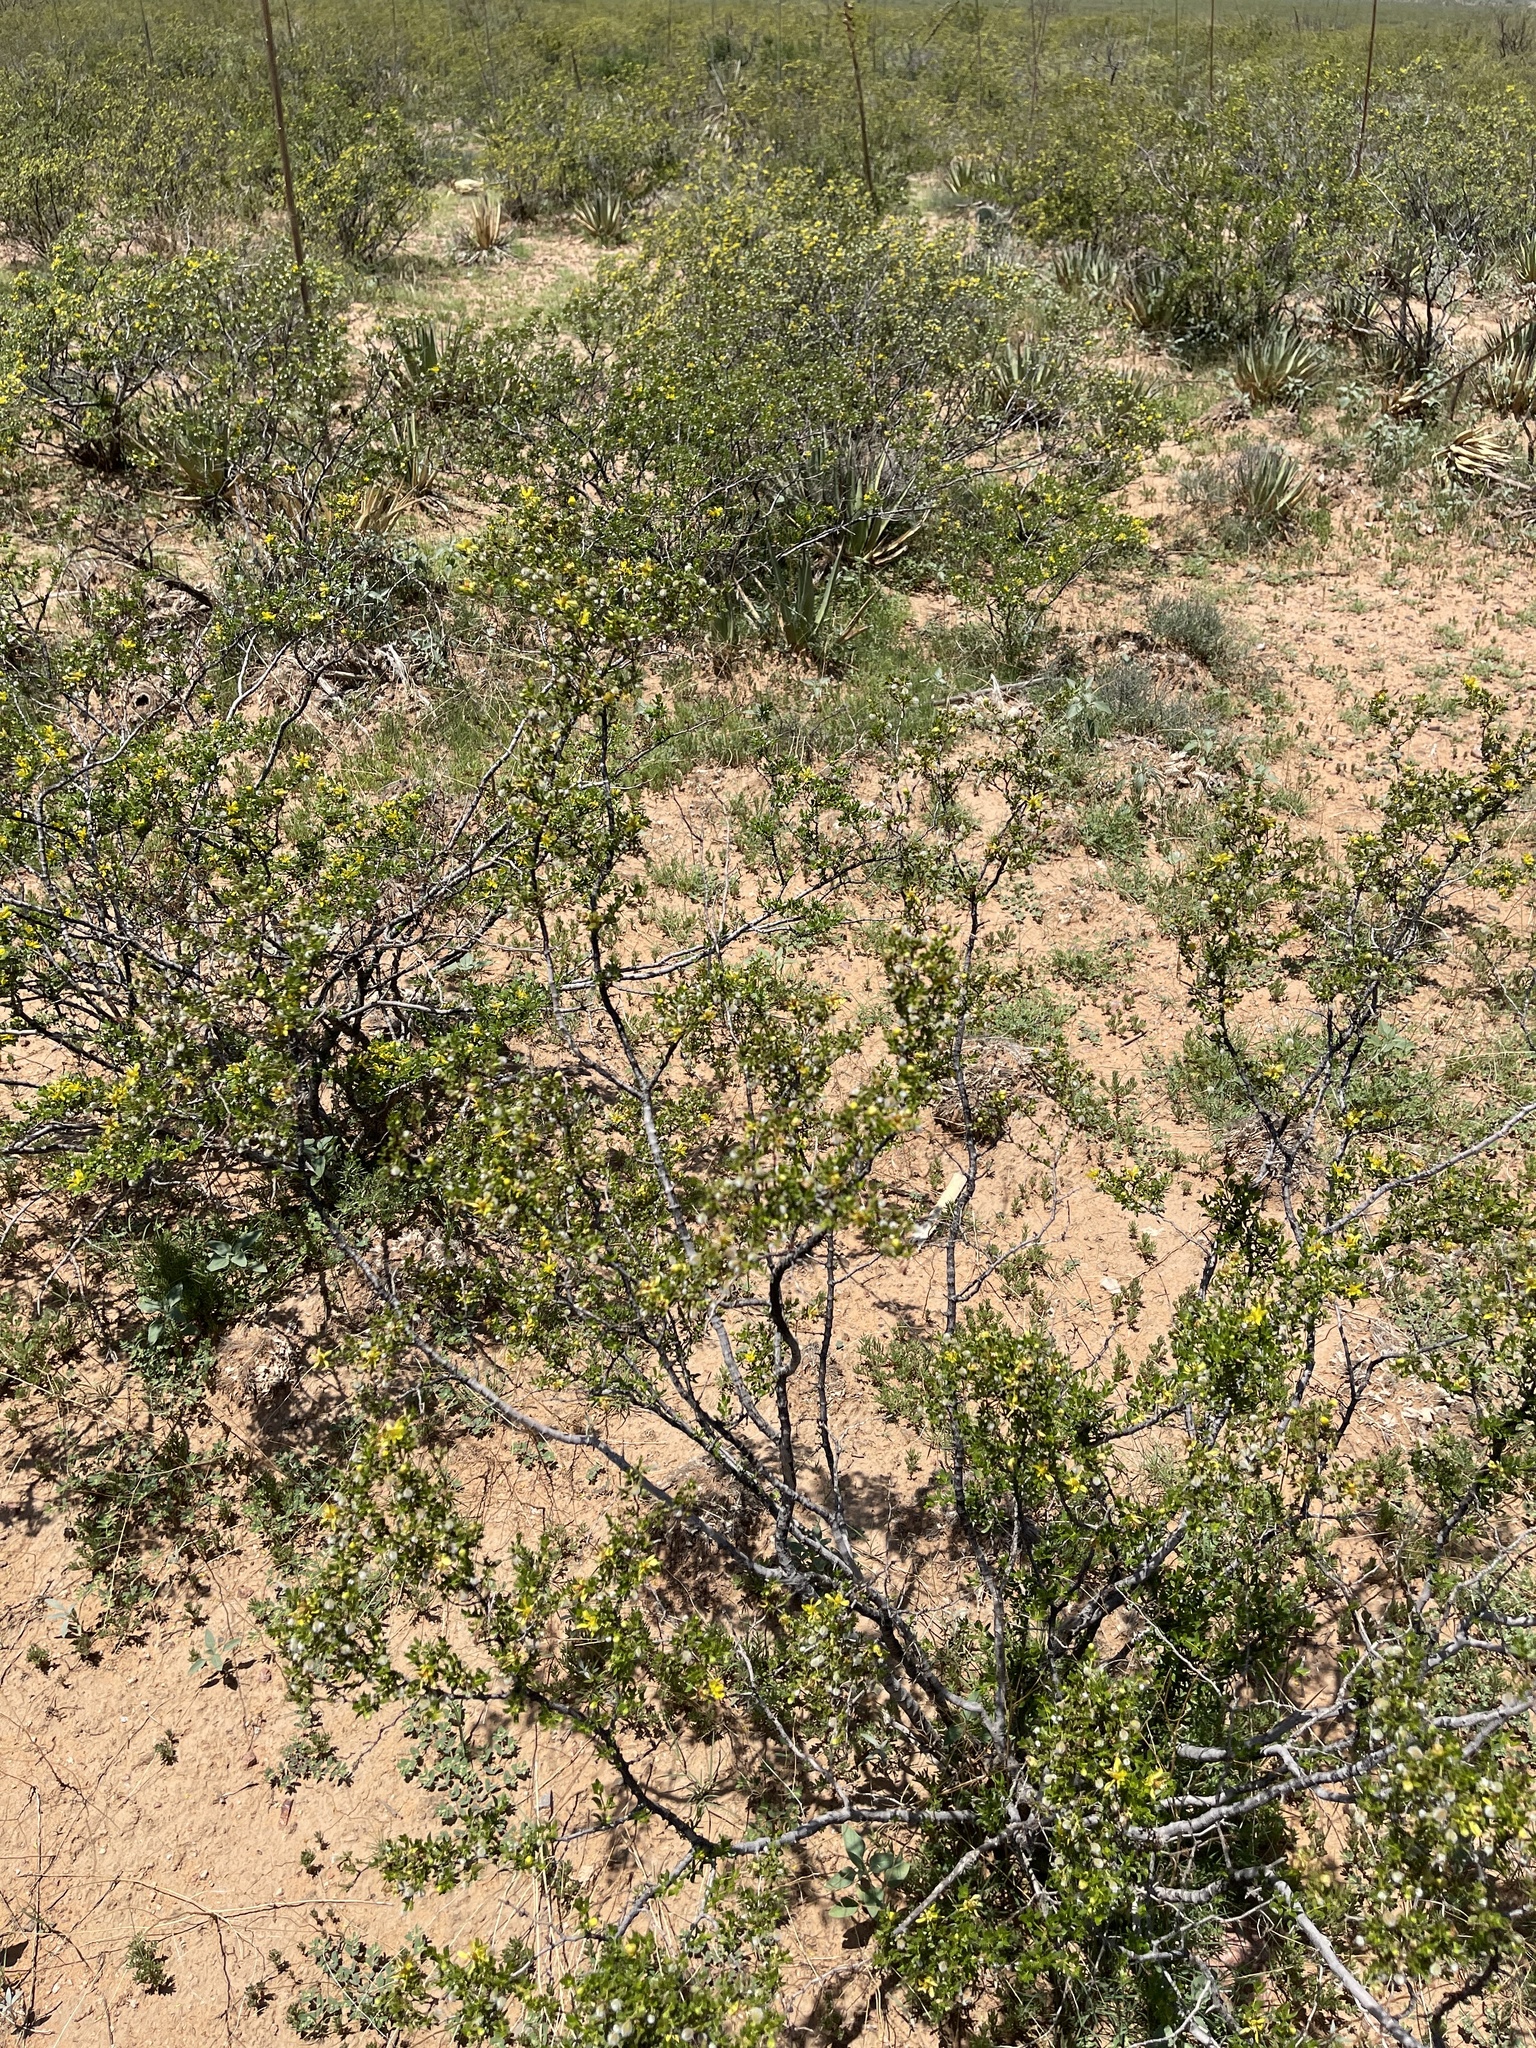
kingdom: Plantae
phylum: Tracheophyta
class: Magnoliopsida
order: Zygophyllales
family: Zygophyllaceae
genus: Larrea
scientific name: Larrea tridentata
